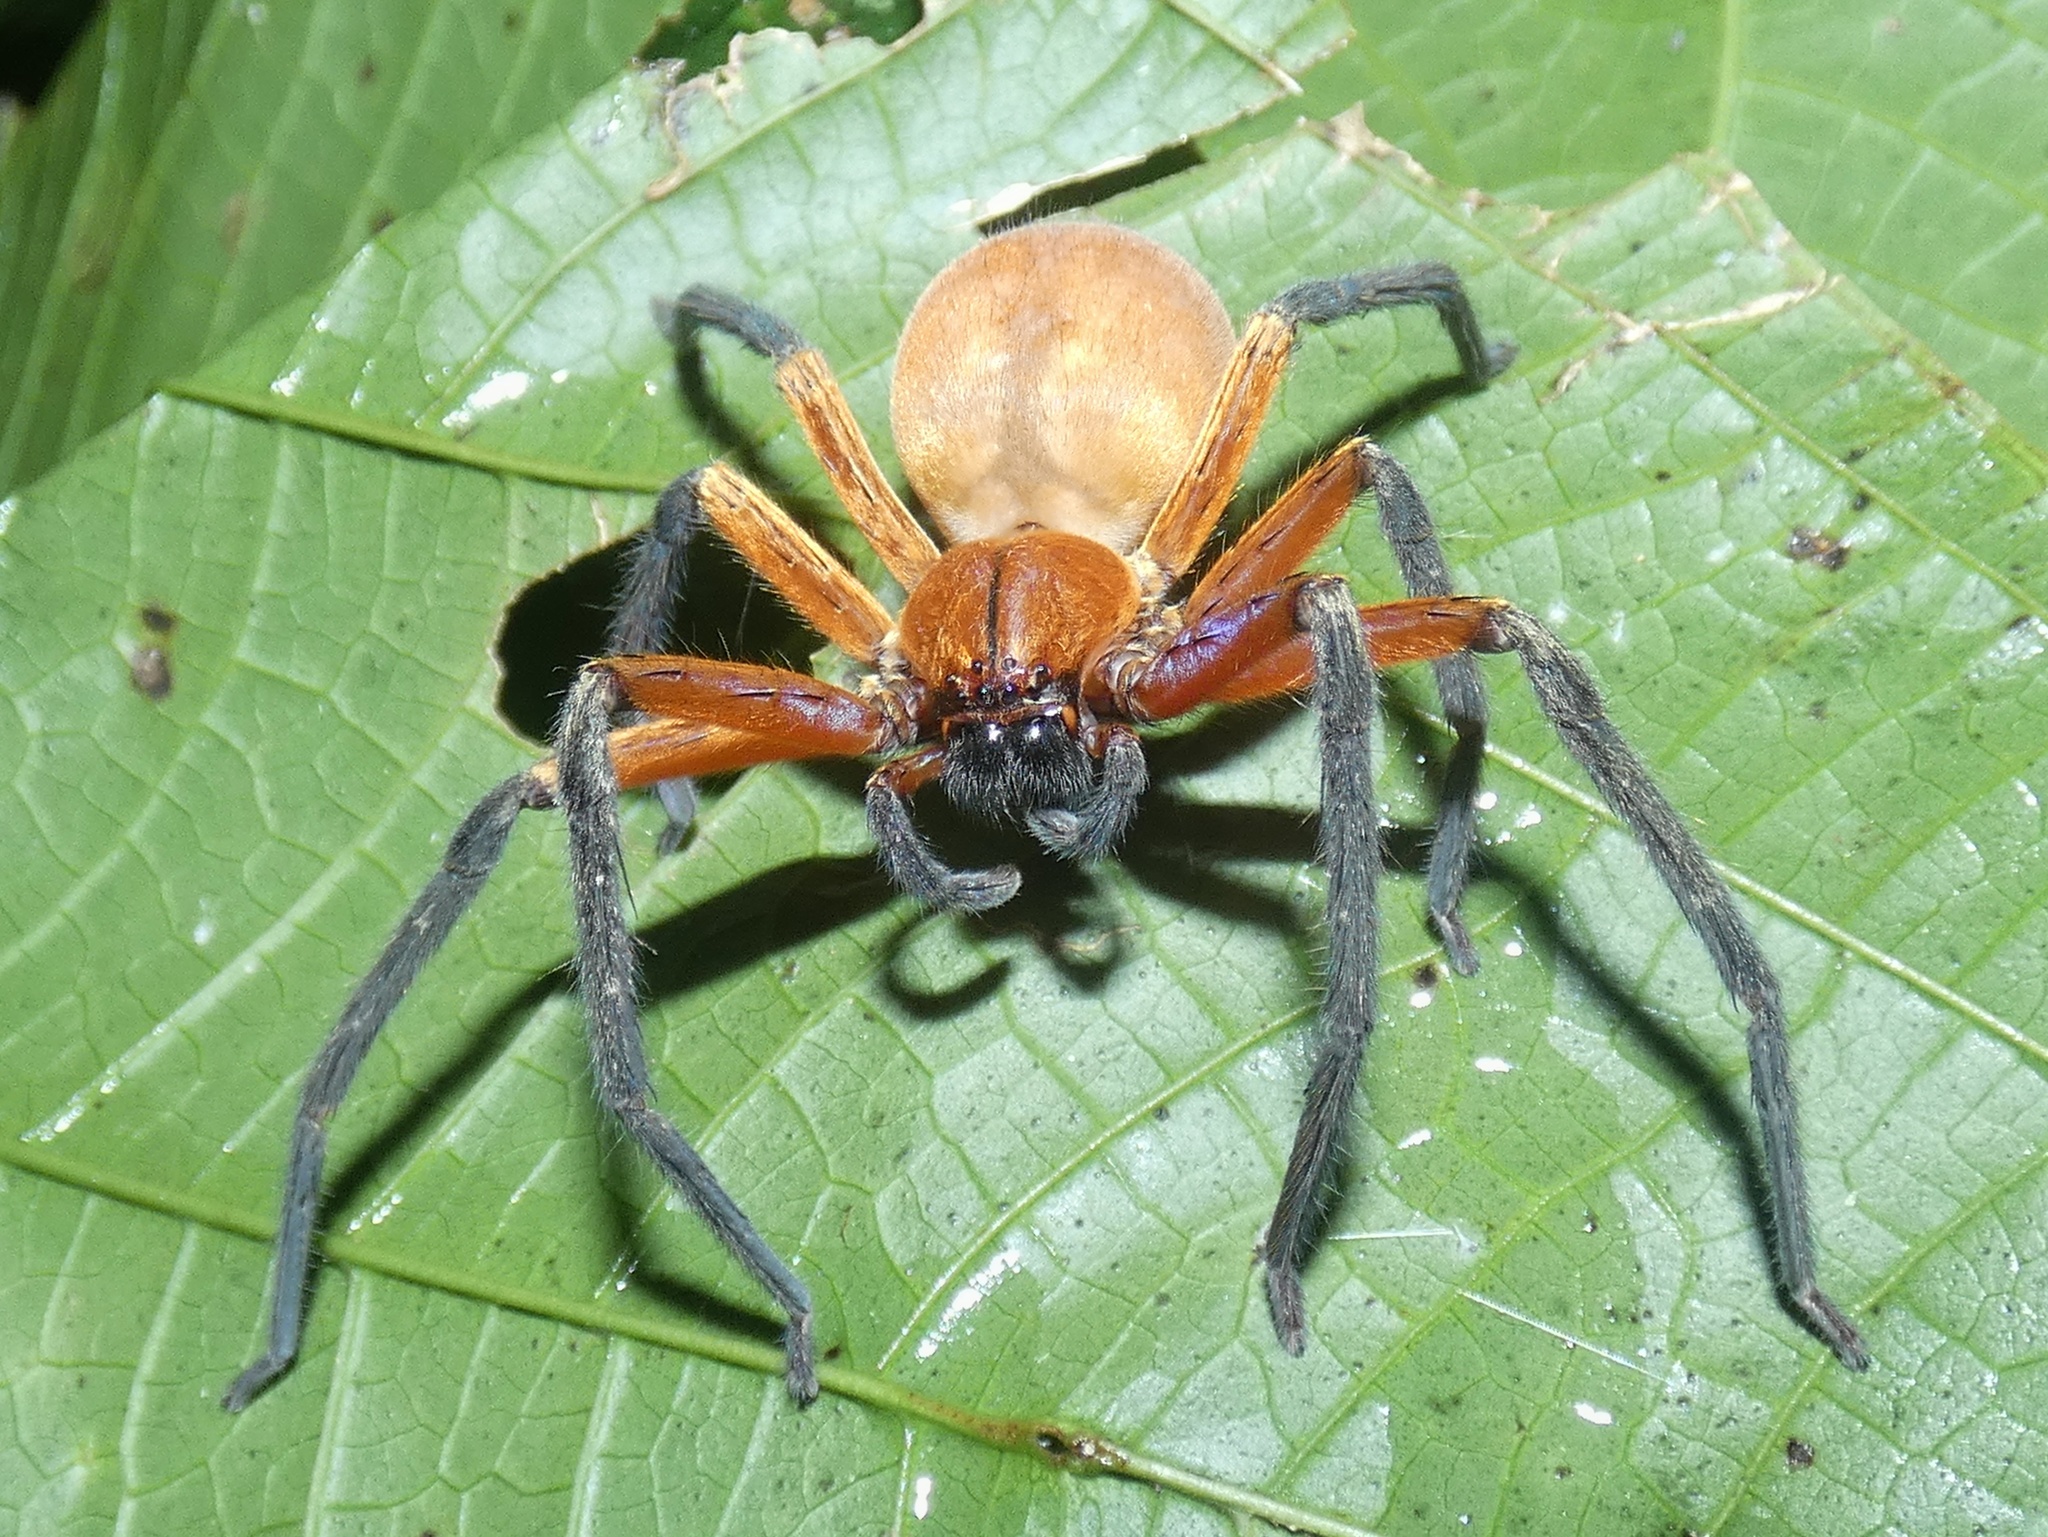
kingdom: Animalia
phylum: Arthropoda
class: Arachnida
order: Araneae
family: Sparassidae
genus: Sadala
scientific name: Sadala rufa
